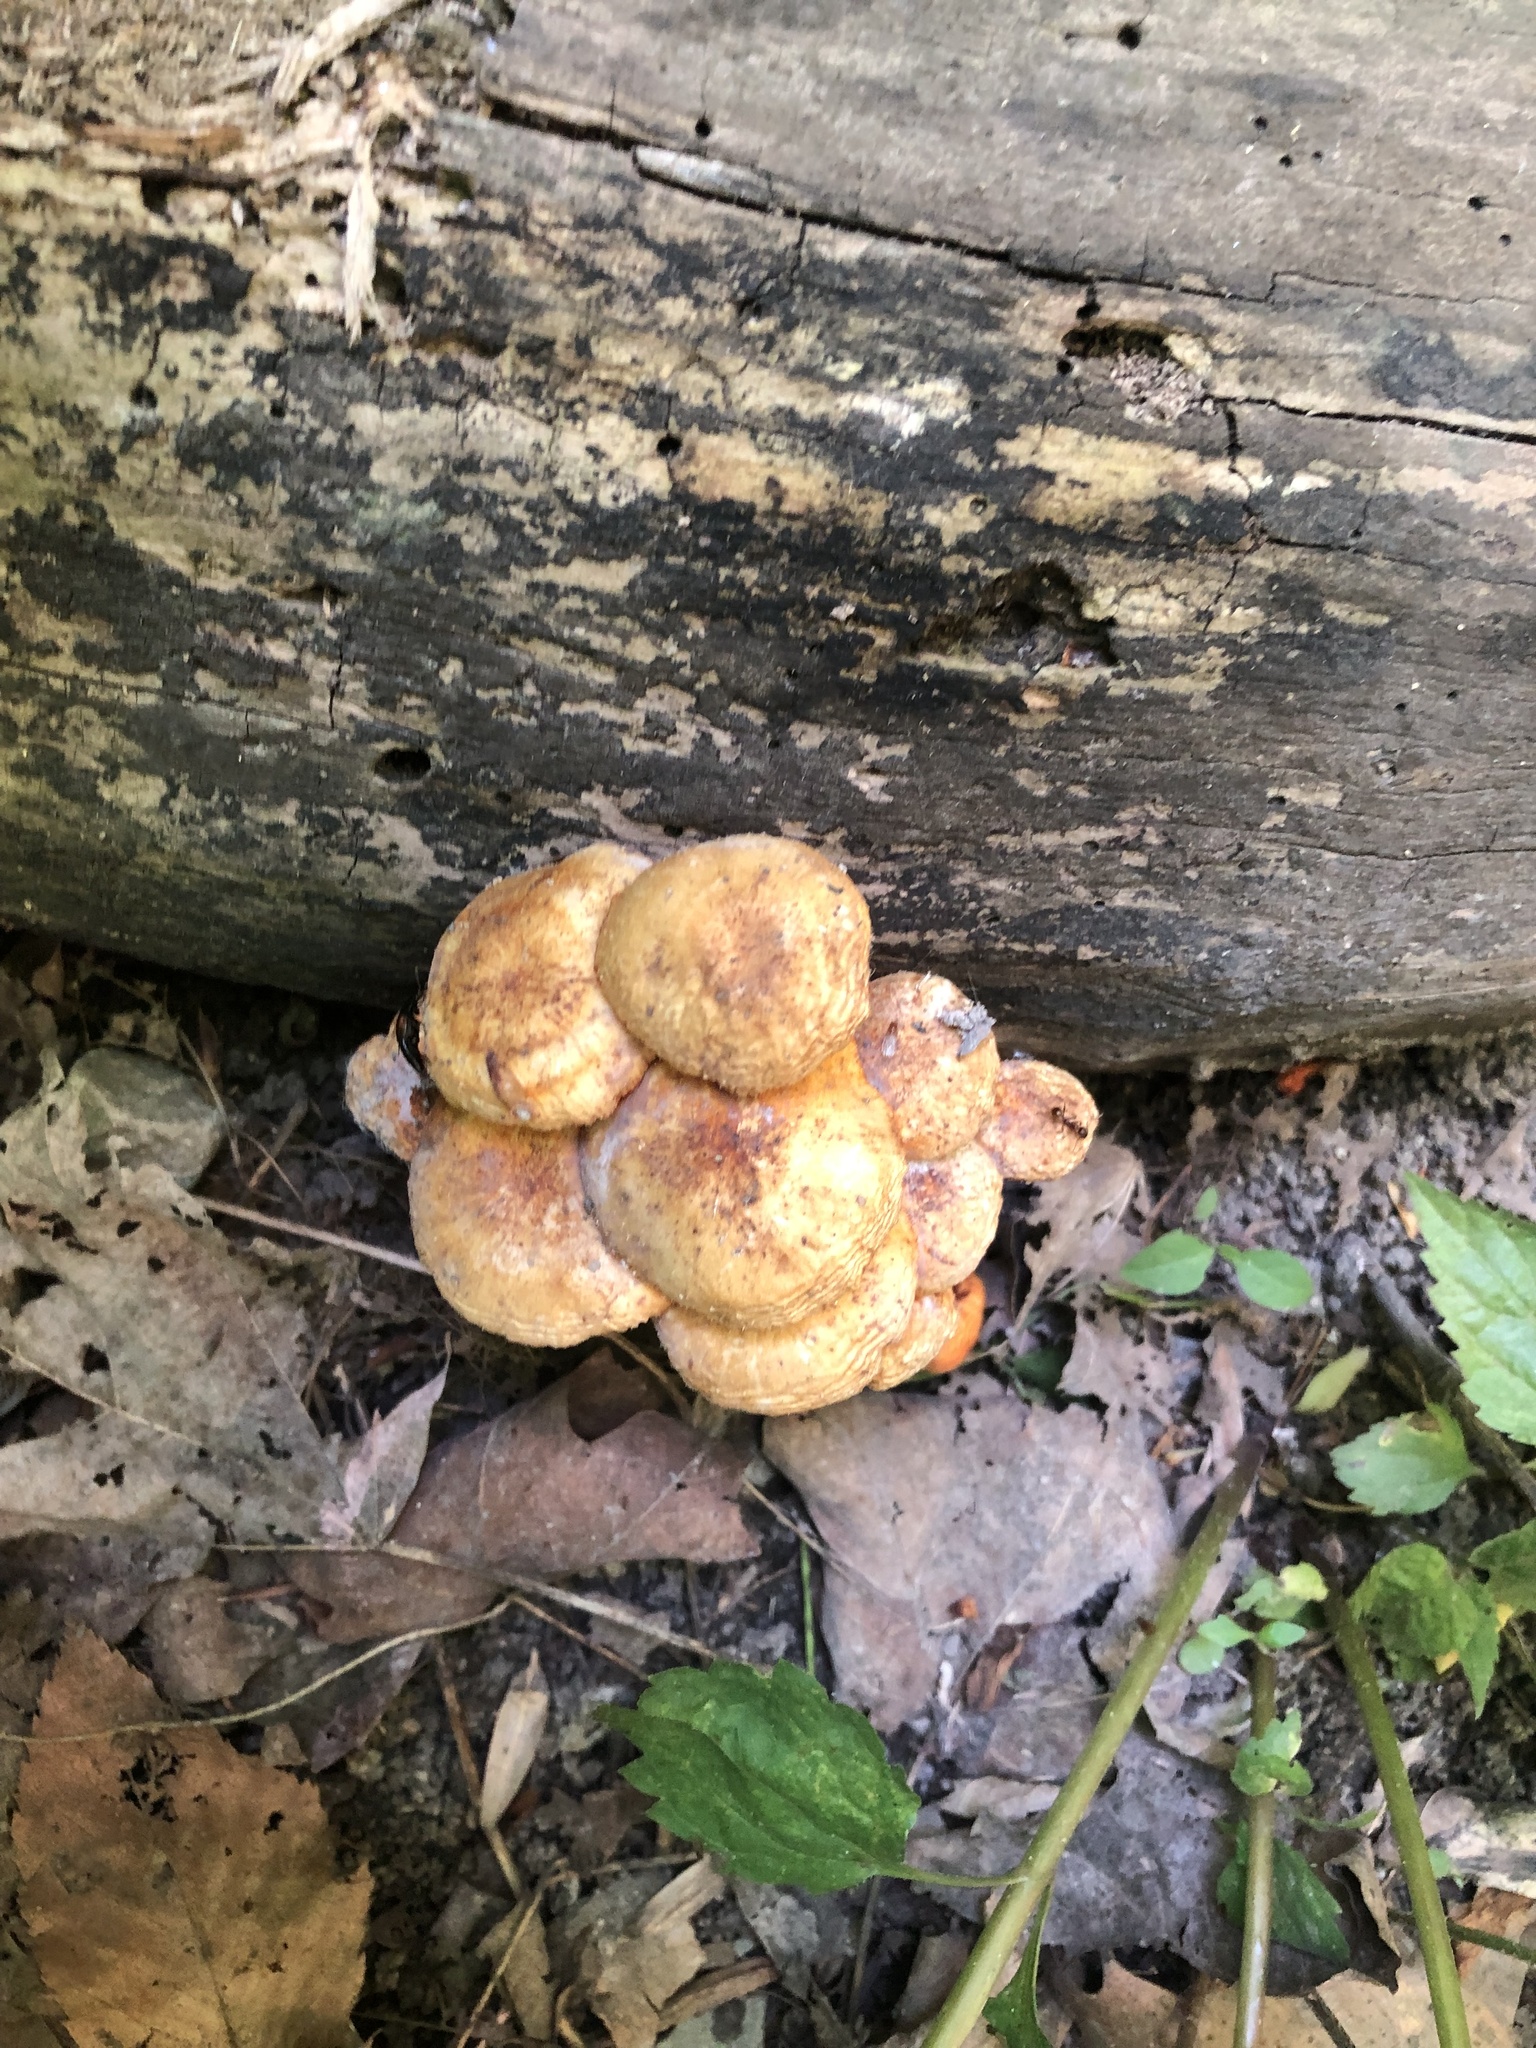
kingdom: Fungi
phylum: Basidiomycota
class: Agaricomycetes
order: Agaricales
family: Mycenaceae
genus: Mycena
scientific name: Mycena leaiana
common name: Orange mycena
